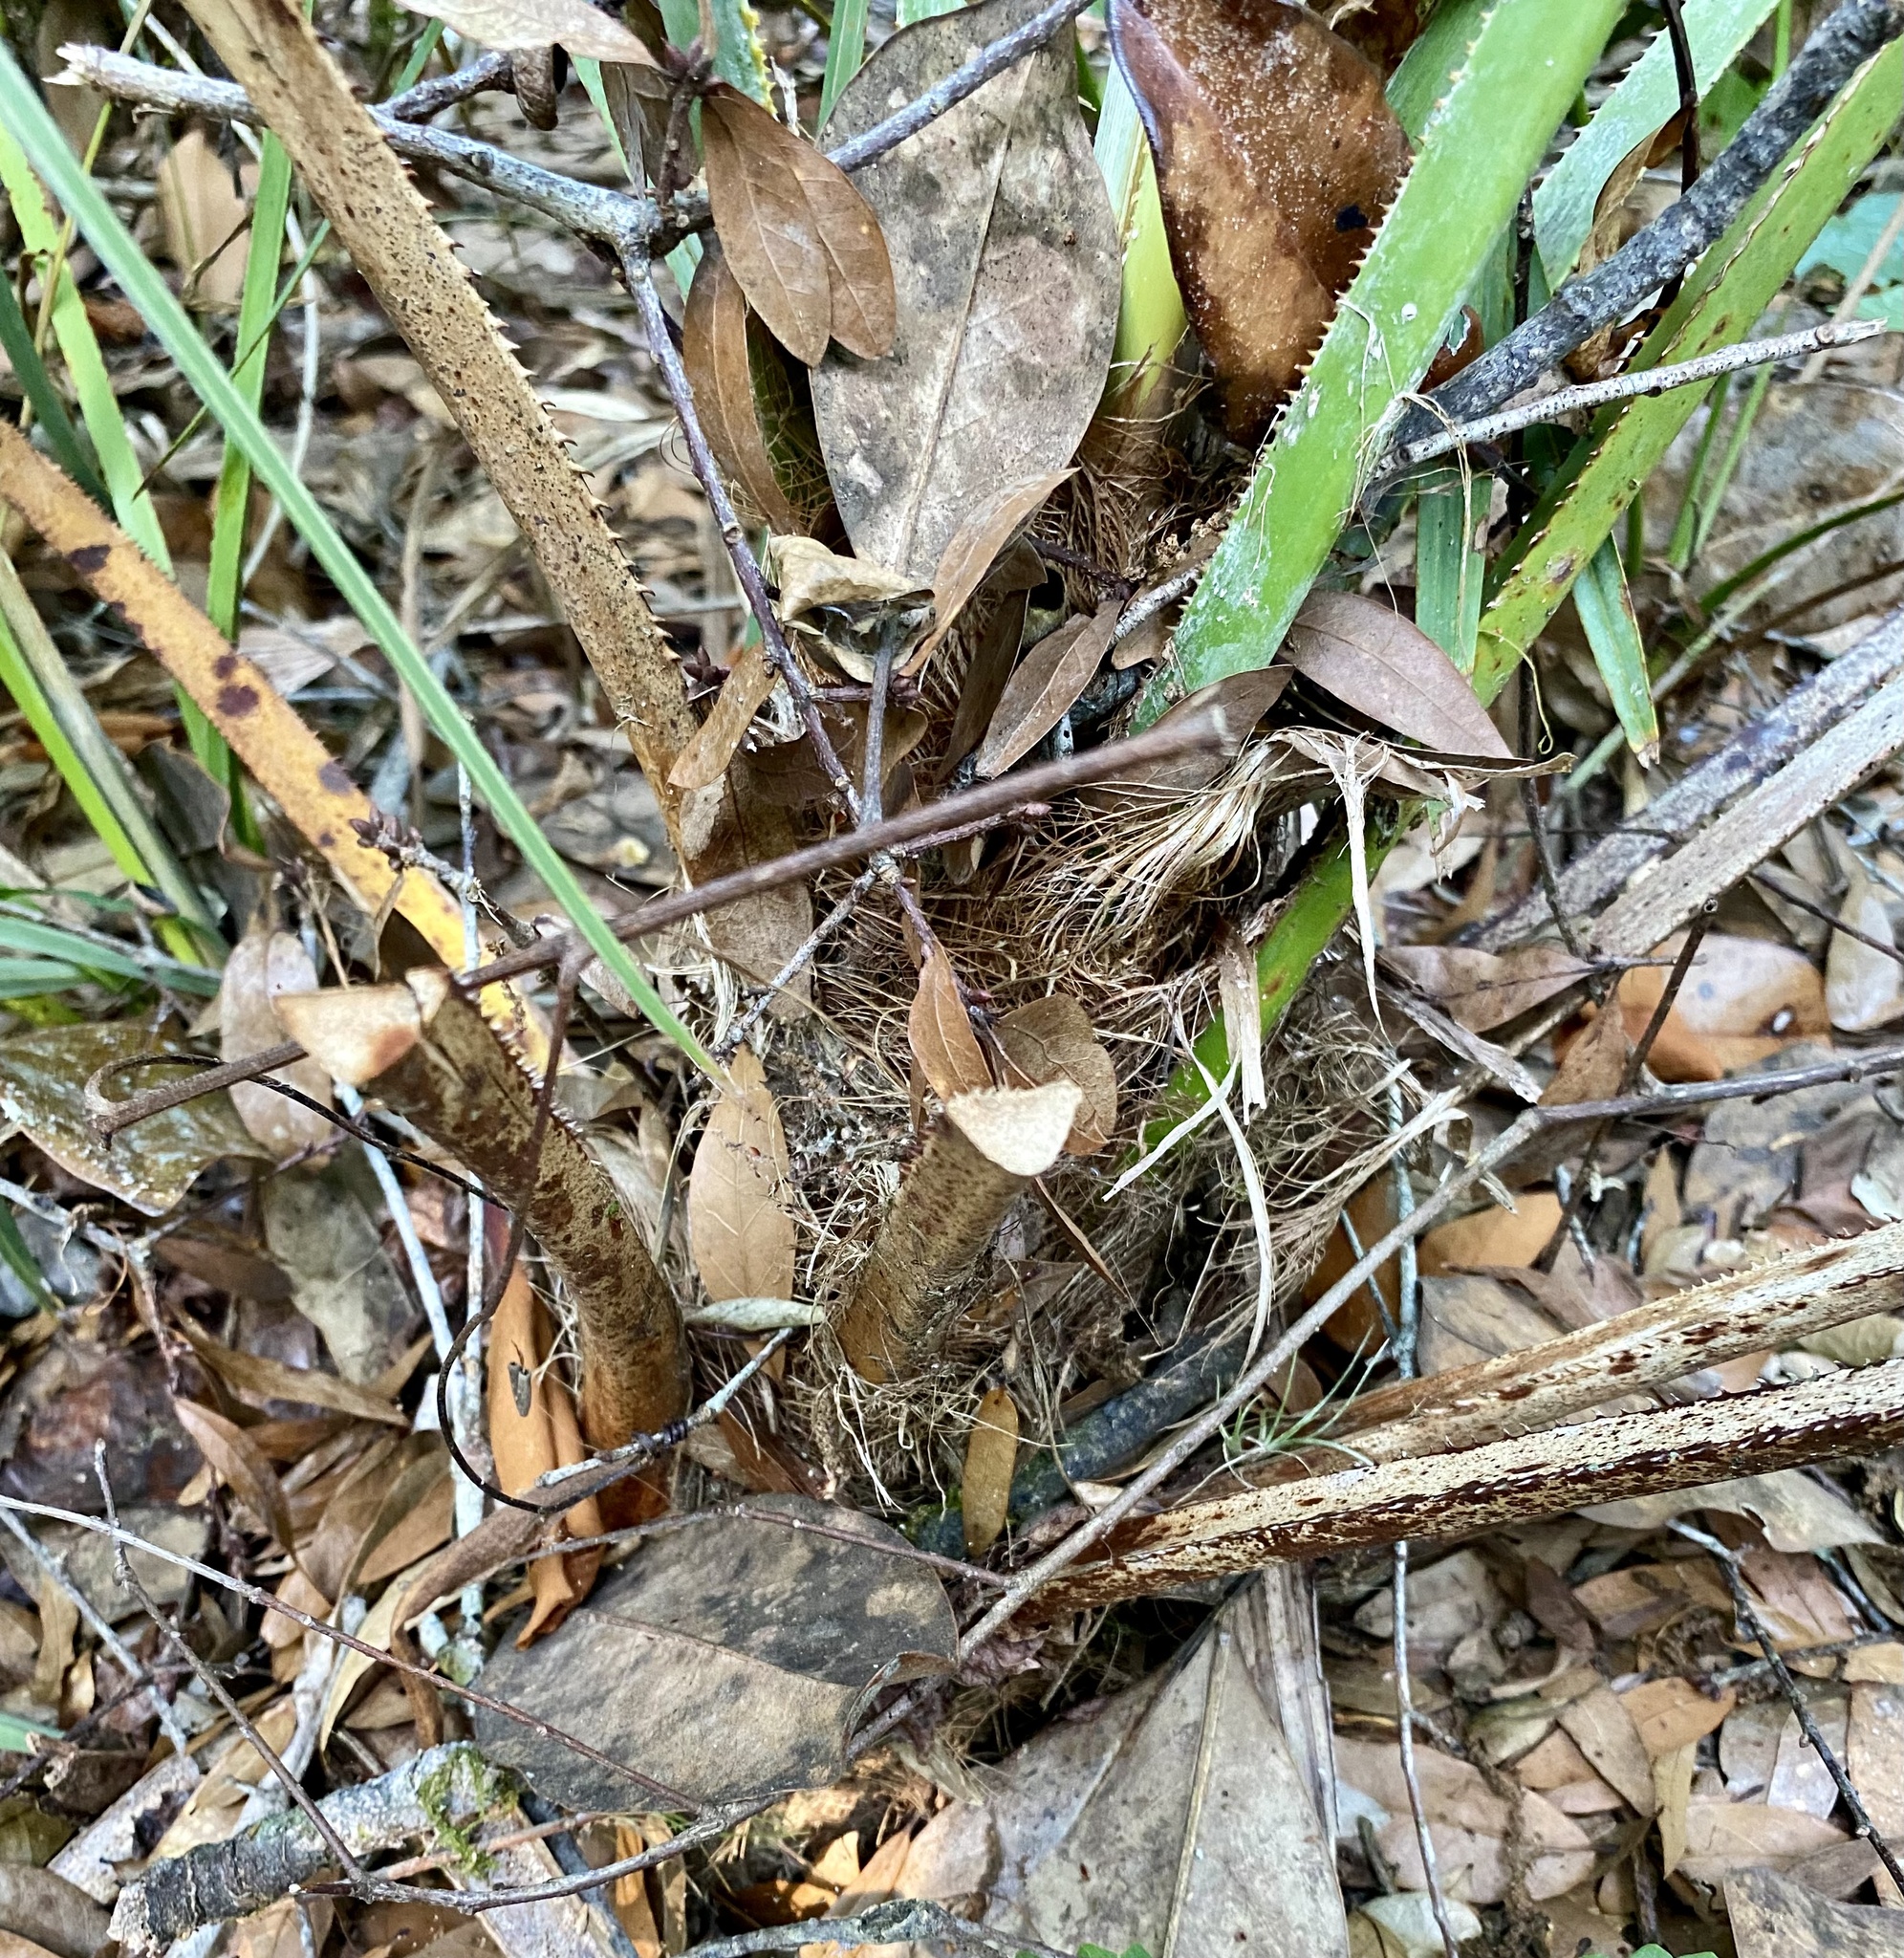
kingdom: Plantae
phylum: Tracheophyta
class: Liliopsida
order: Arecales
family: Arecaceae
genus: Serenoa
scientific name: Serenoa repens
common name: Saw-palmetto
